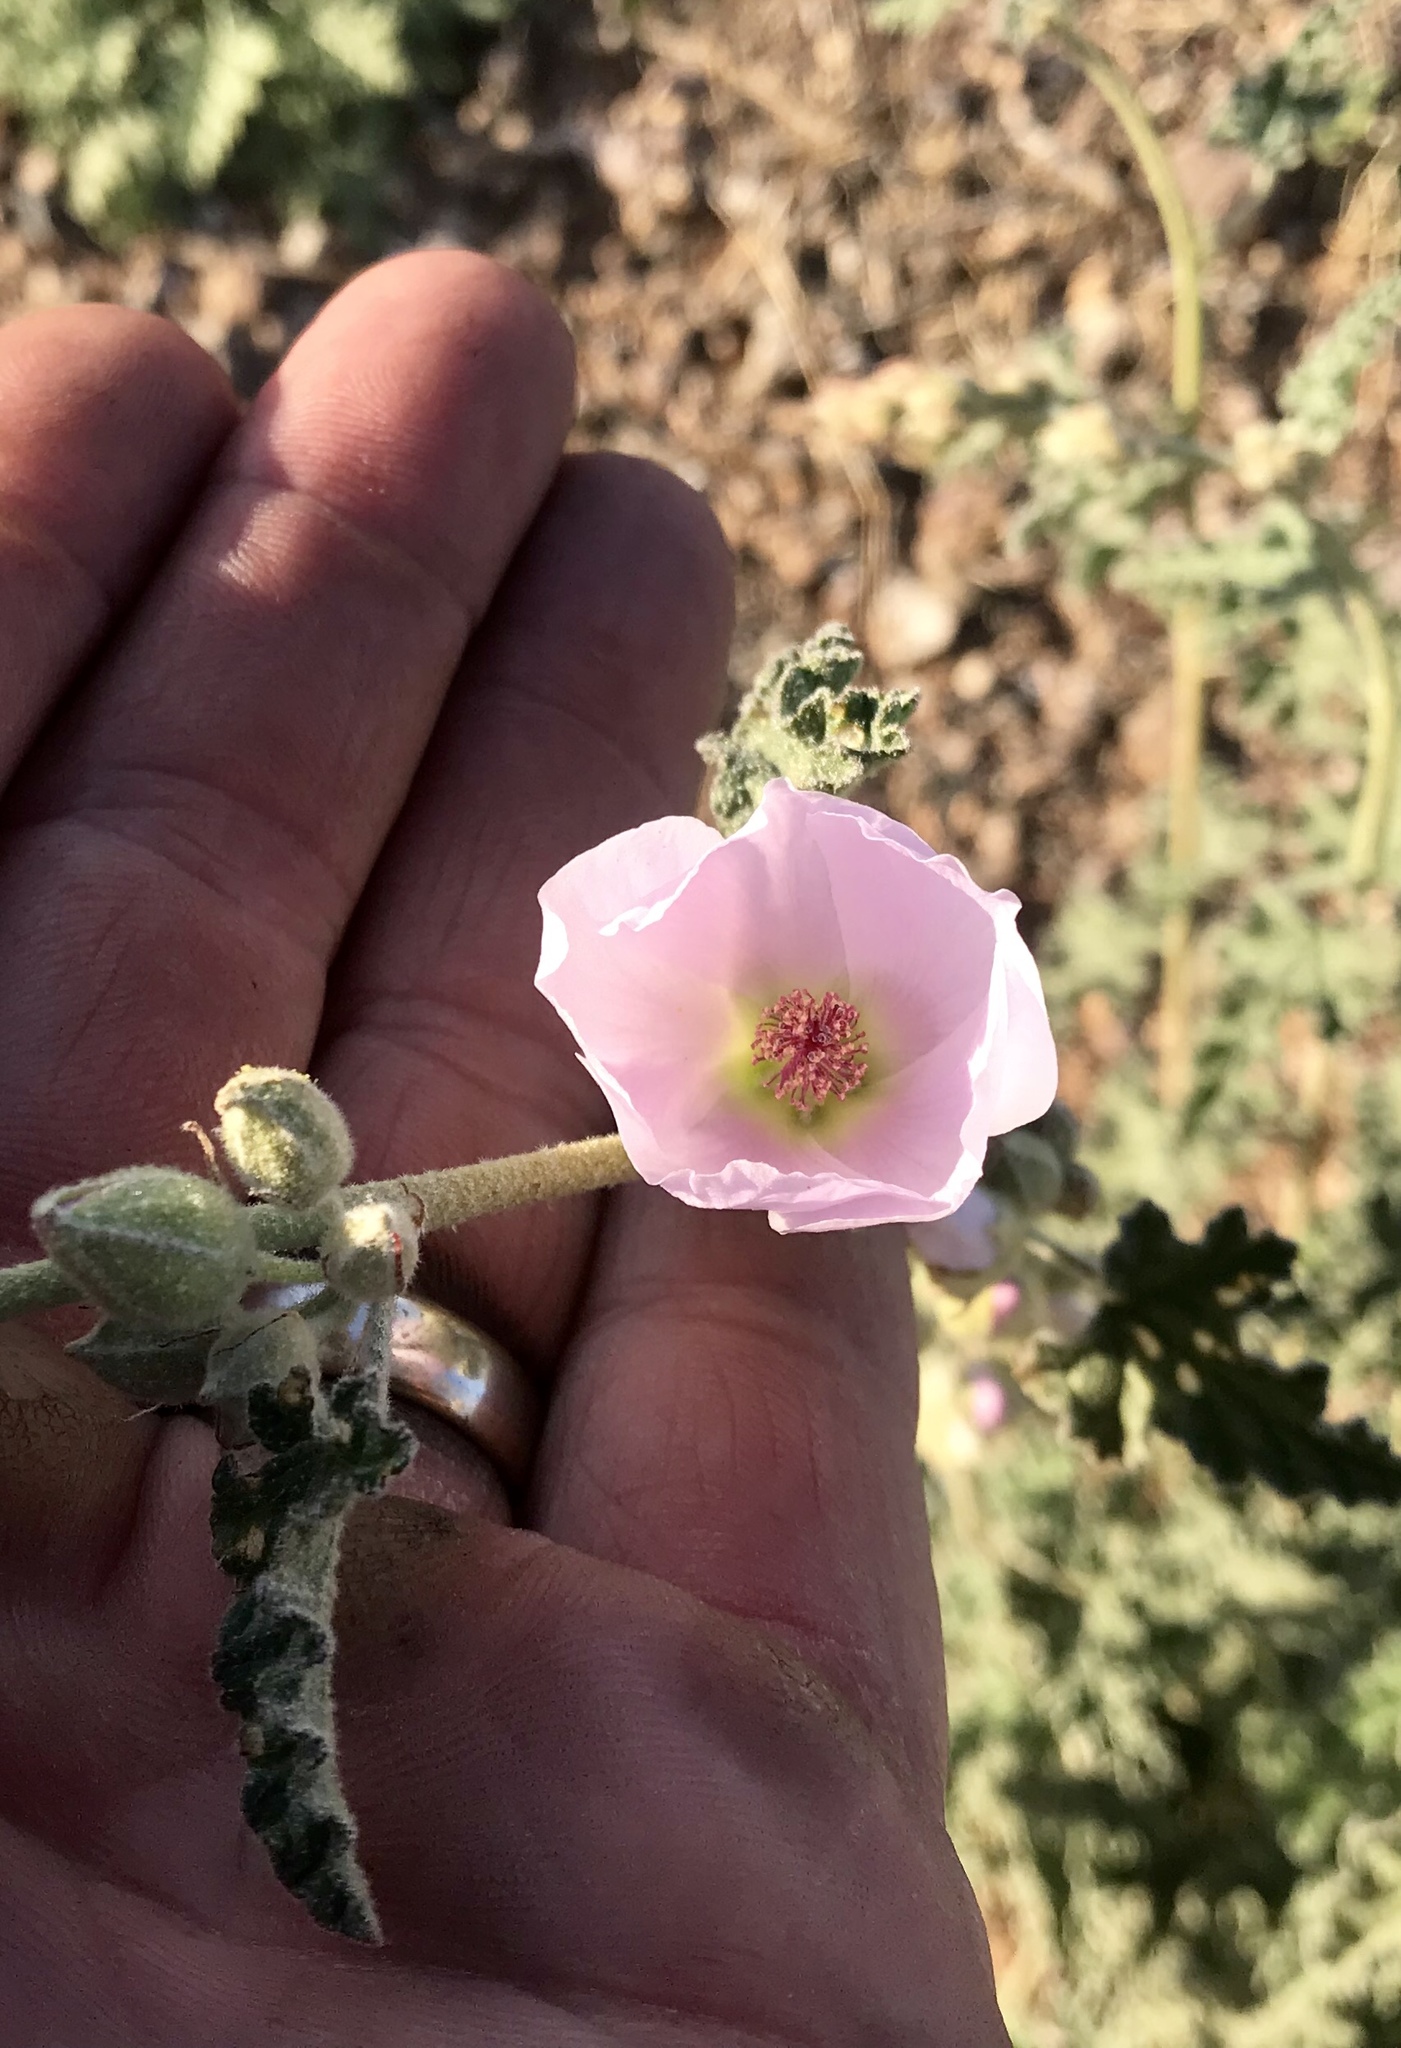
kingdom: Plantae
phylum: Tracheophyta
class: Magnoliopsida
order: Malvales
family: Malvaceae
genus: Sphaeralcea
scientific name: Sphaeralcea ambigua
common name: Apricot globe-mallow
